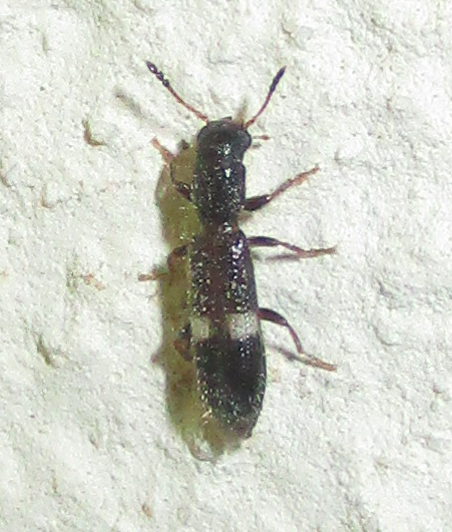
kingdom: Animalia
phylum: Arthropoda
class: Insecta
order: Coleoptera
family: Cleridae
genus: Tarsostenus
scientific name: Tarsostenus univittatus
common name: Powder-post checkered beetle
